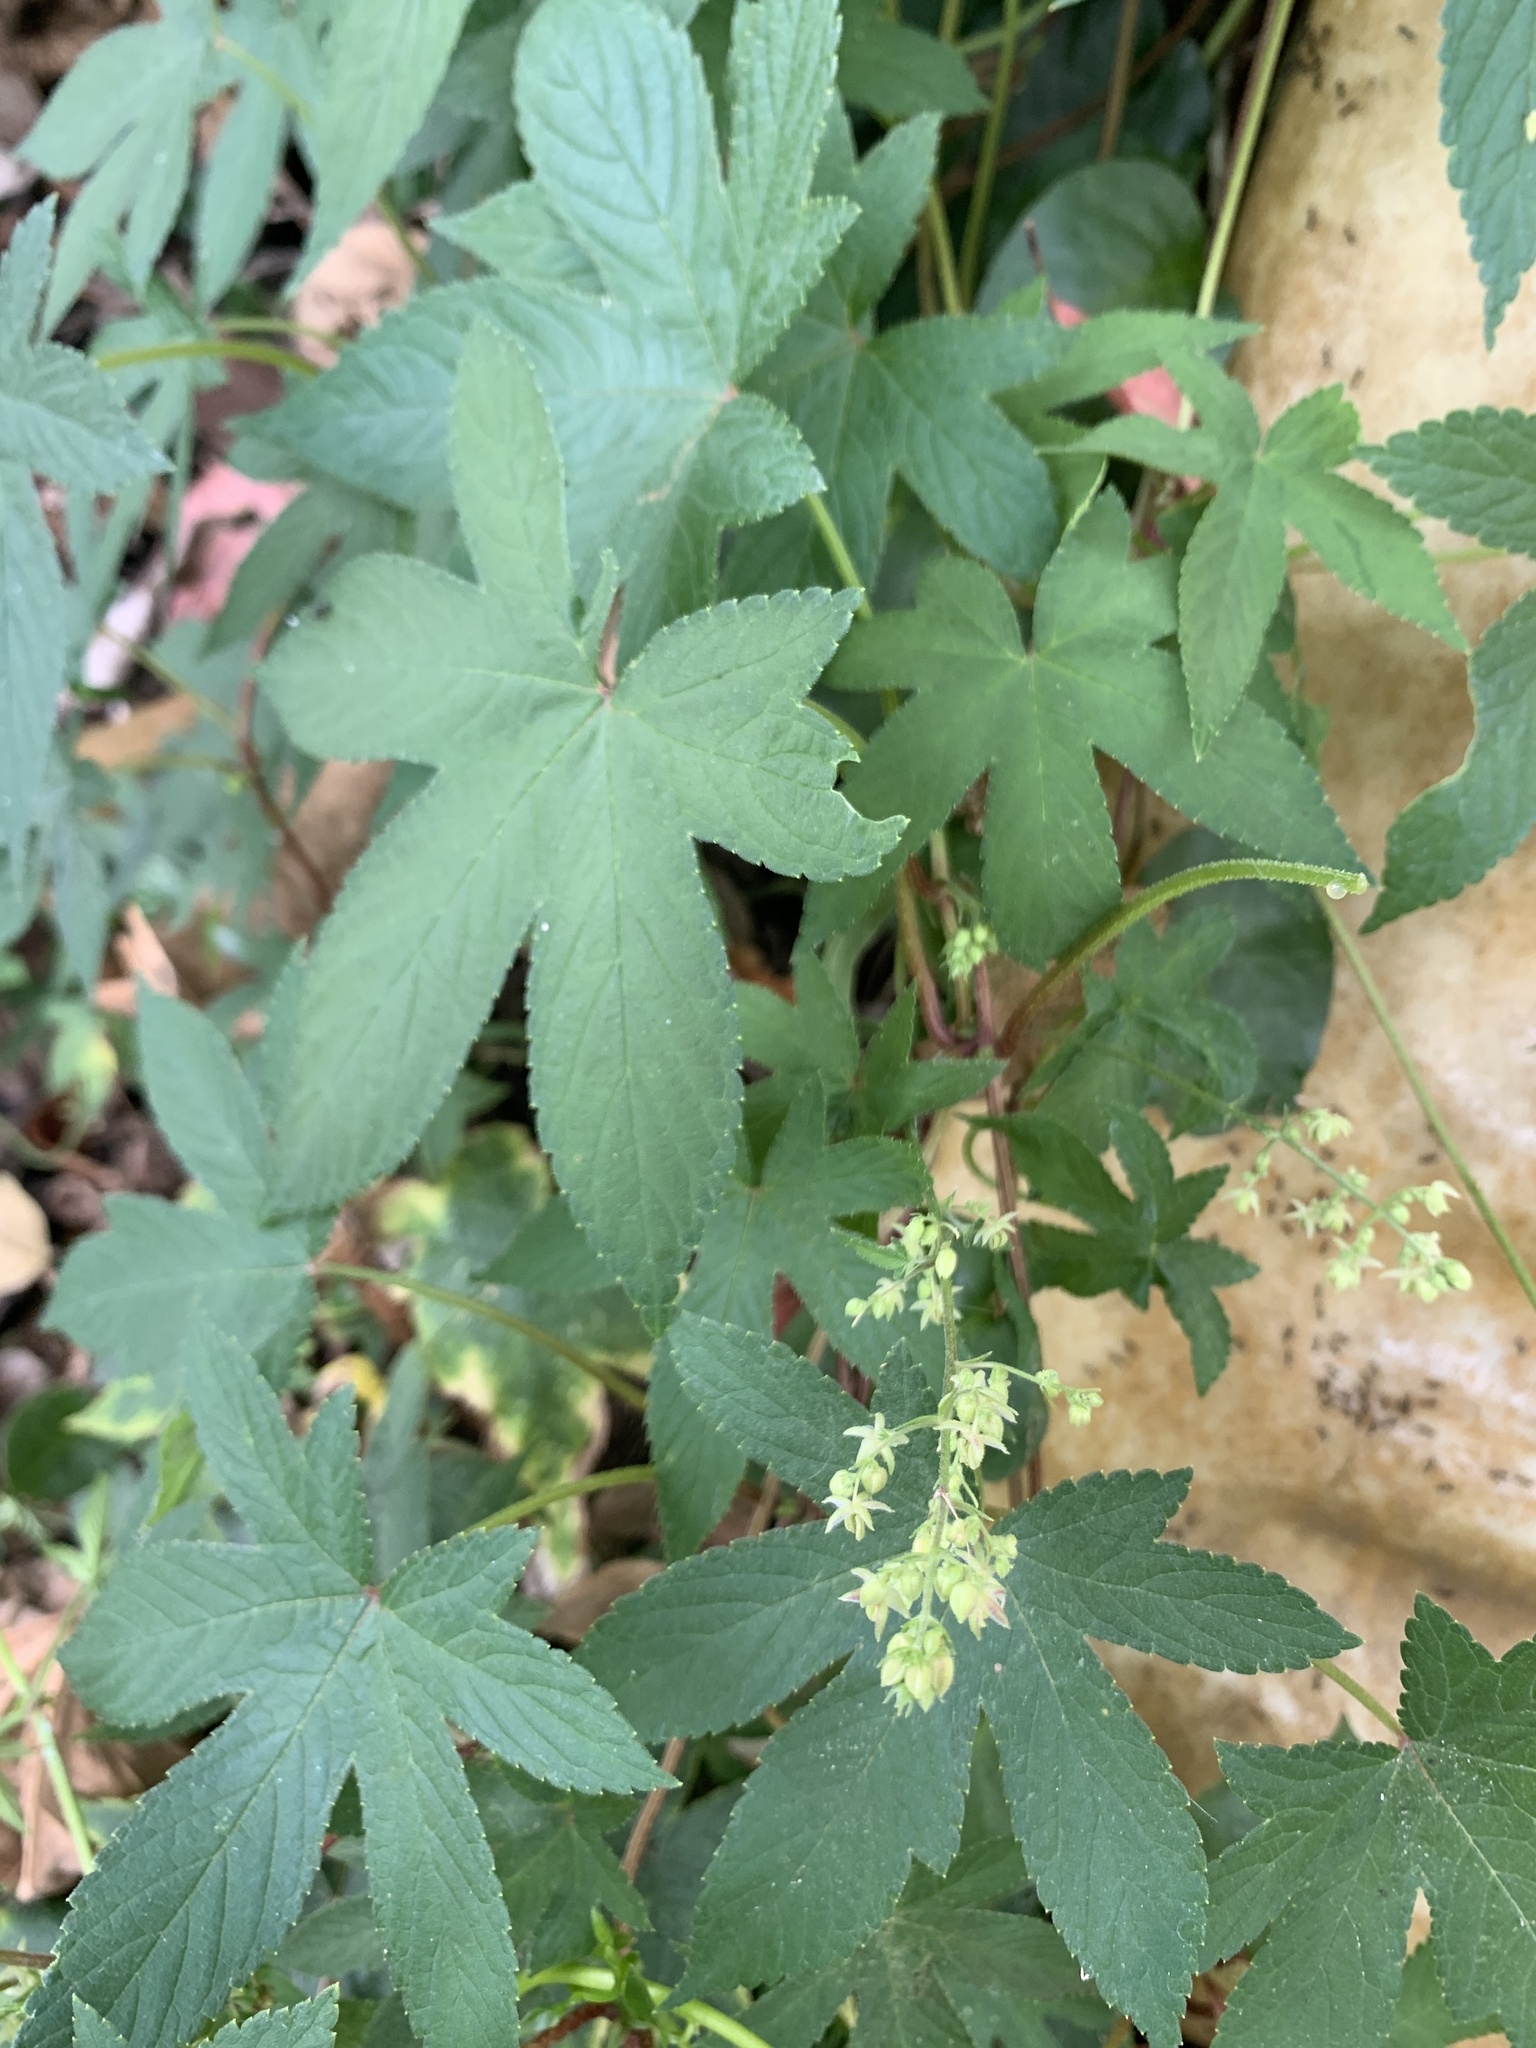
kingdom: Plantae
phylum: Tracheophyta
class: Magnoliopsida
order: Rosales
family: Cannabaceae
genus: Humulus
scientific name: Humulus scandens
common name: Japanese hop
